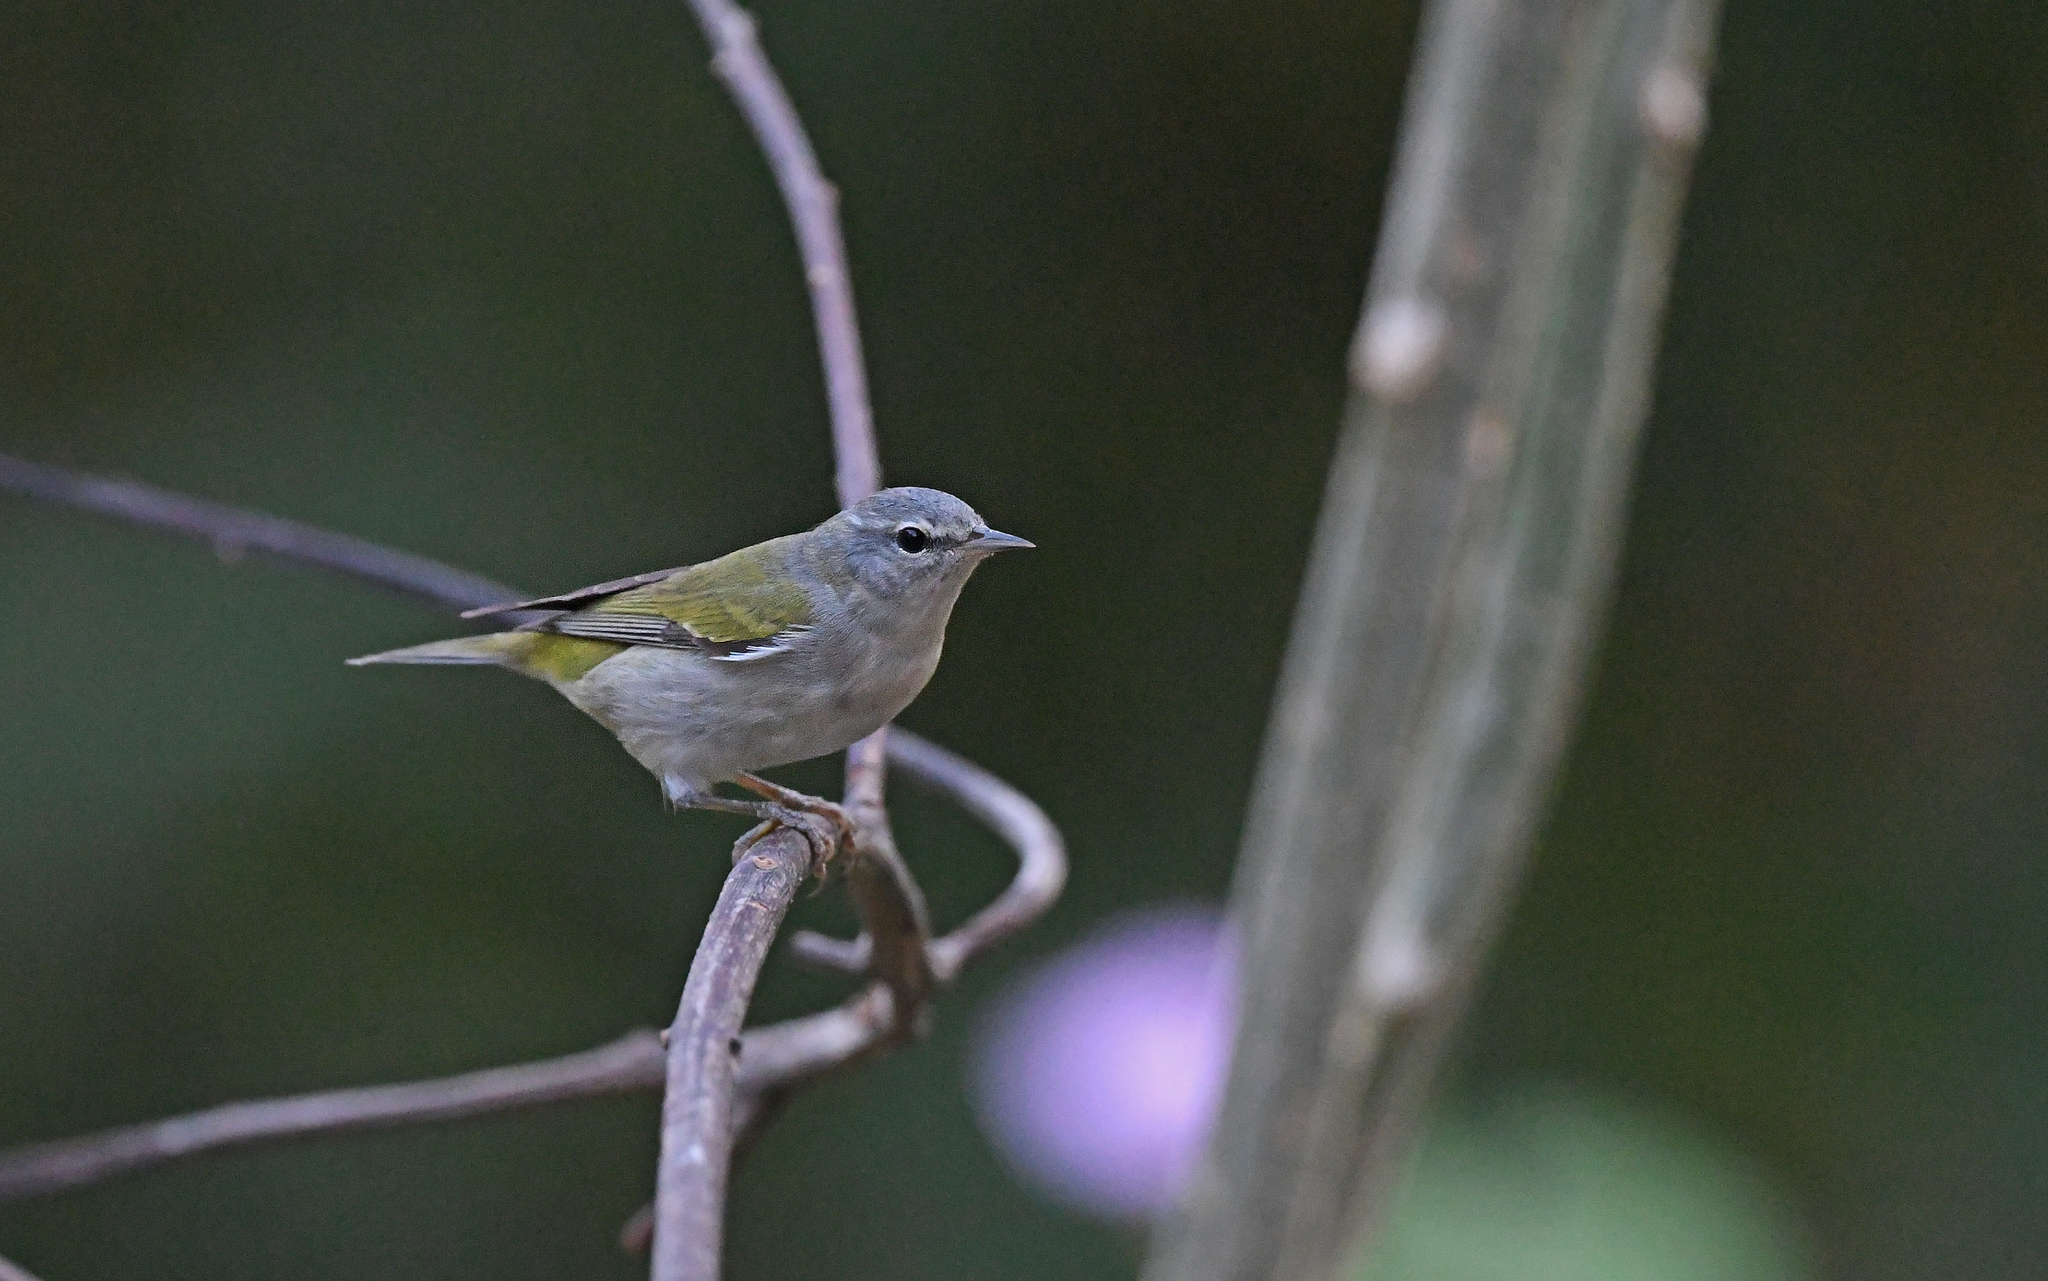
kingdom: Animalia
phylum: Chordata
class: Aves
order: Passeriformes
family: Parulidae
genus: Leiothlypis
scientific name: Leiothlypis peregrina
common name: Tennessee warbler
